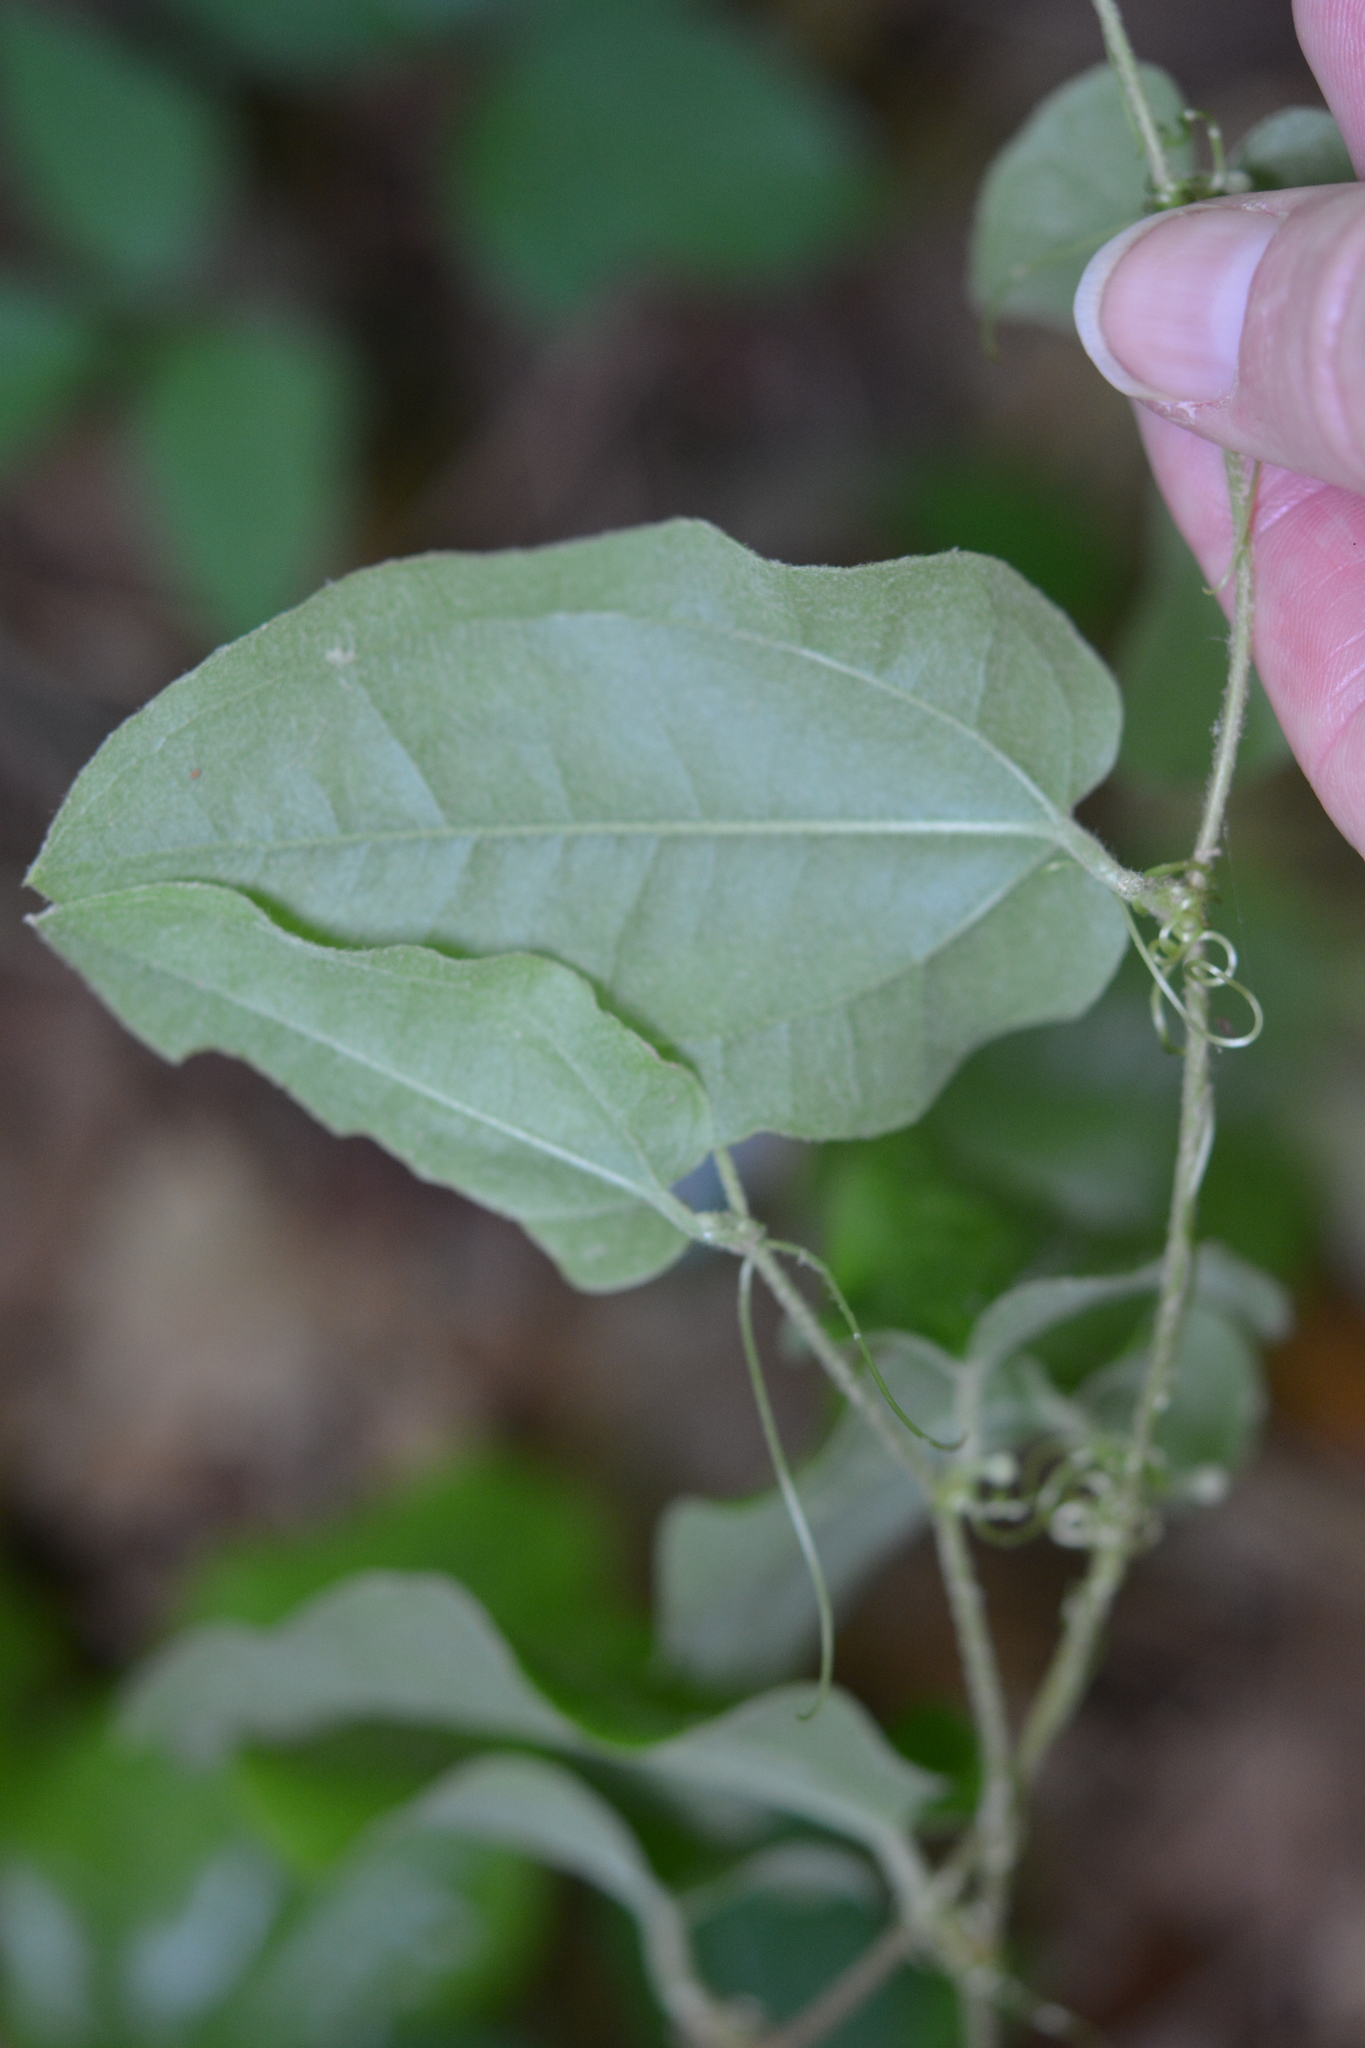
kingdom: Plantae
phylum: Tracheophyta
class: Liliopsida
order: Liliales
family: Smilacaceae
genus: Smilax
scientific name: Smilax pumila
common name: Sarsaparilla-vine
